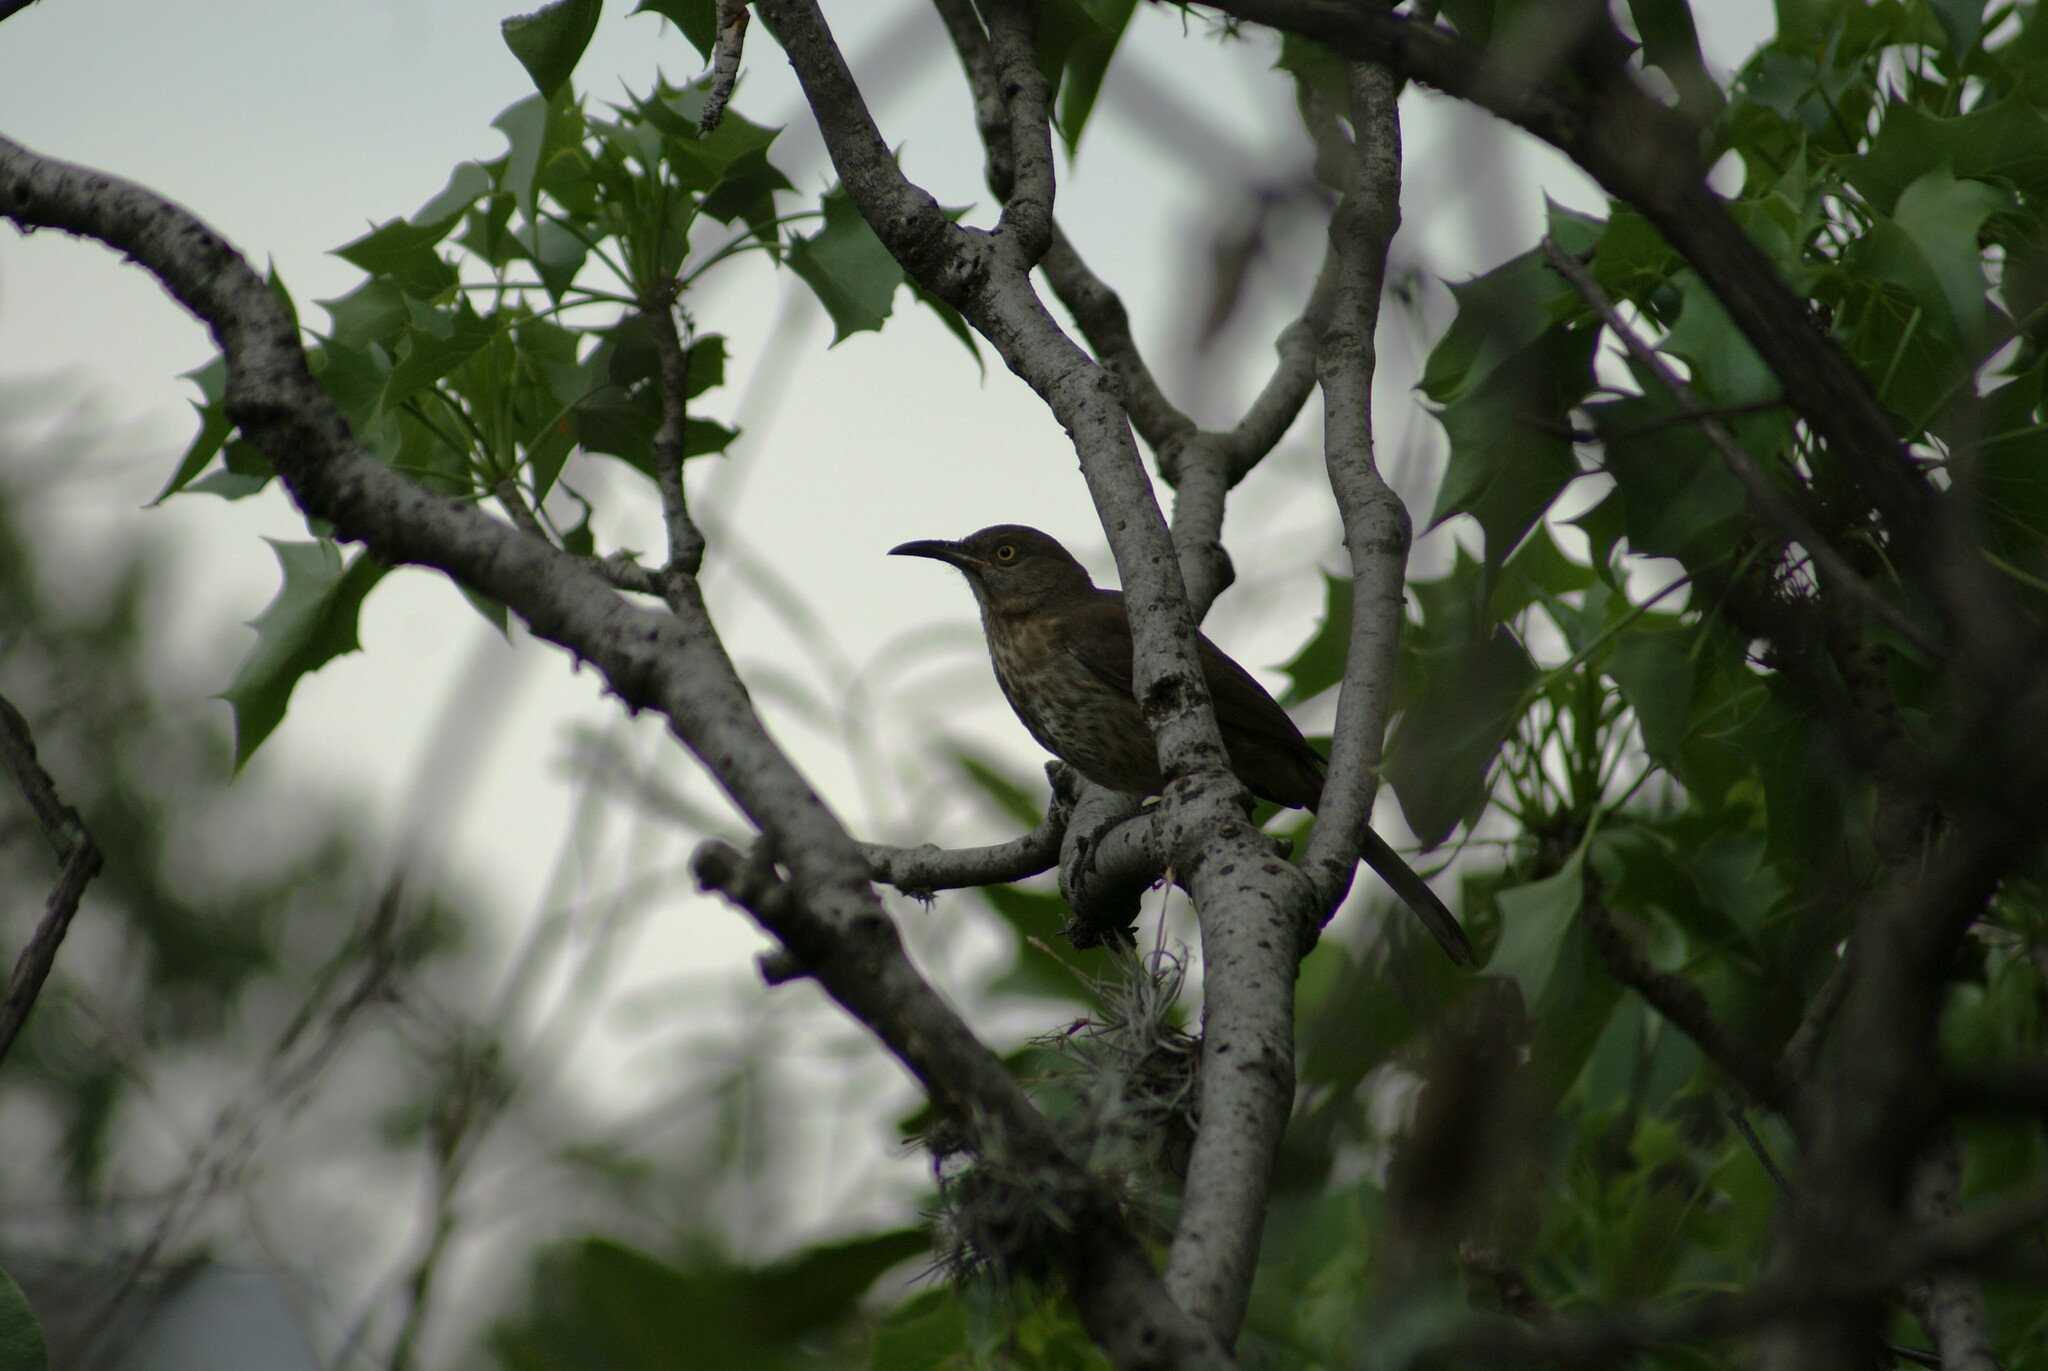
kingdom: Animalia
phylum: Chordata
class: Aves
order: Passeriformes
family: Mimidae
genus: Toxostoma
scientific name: Toxostoma curvirostre
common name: Curve-billed thrasher
